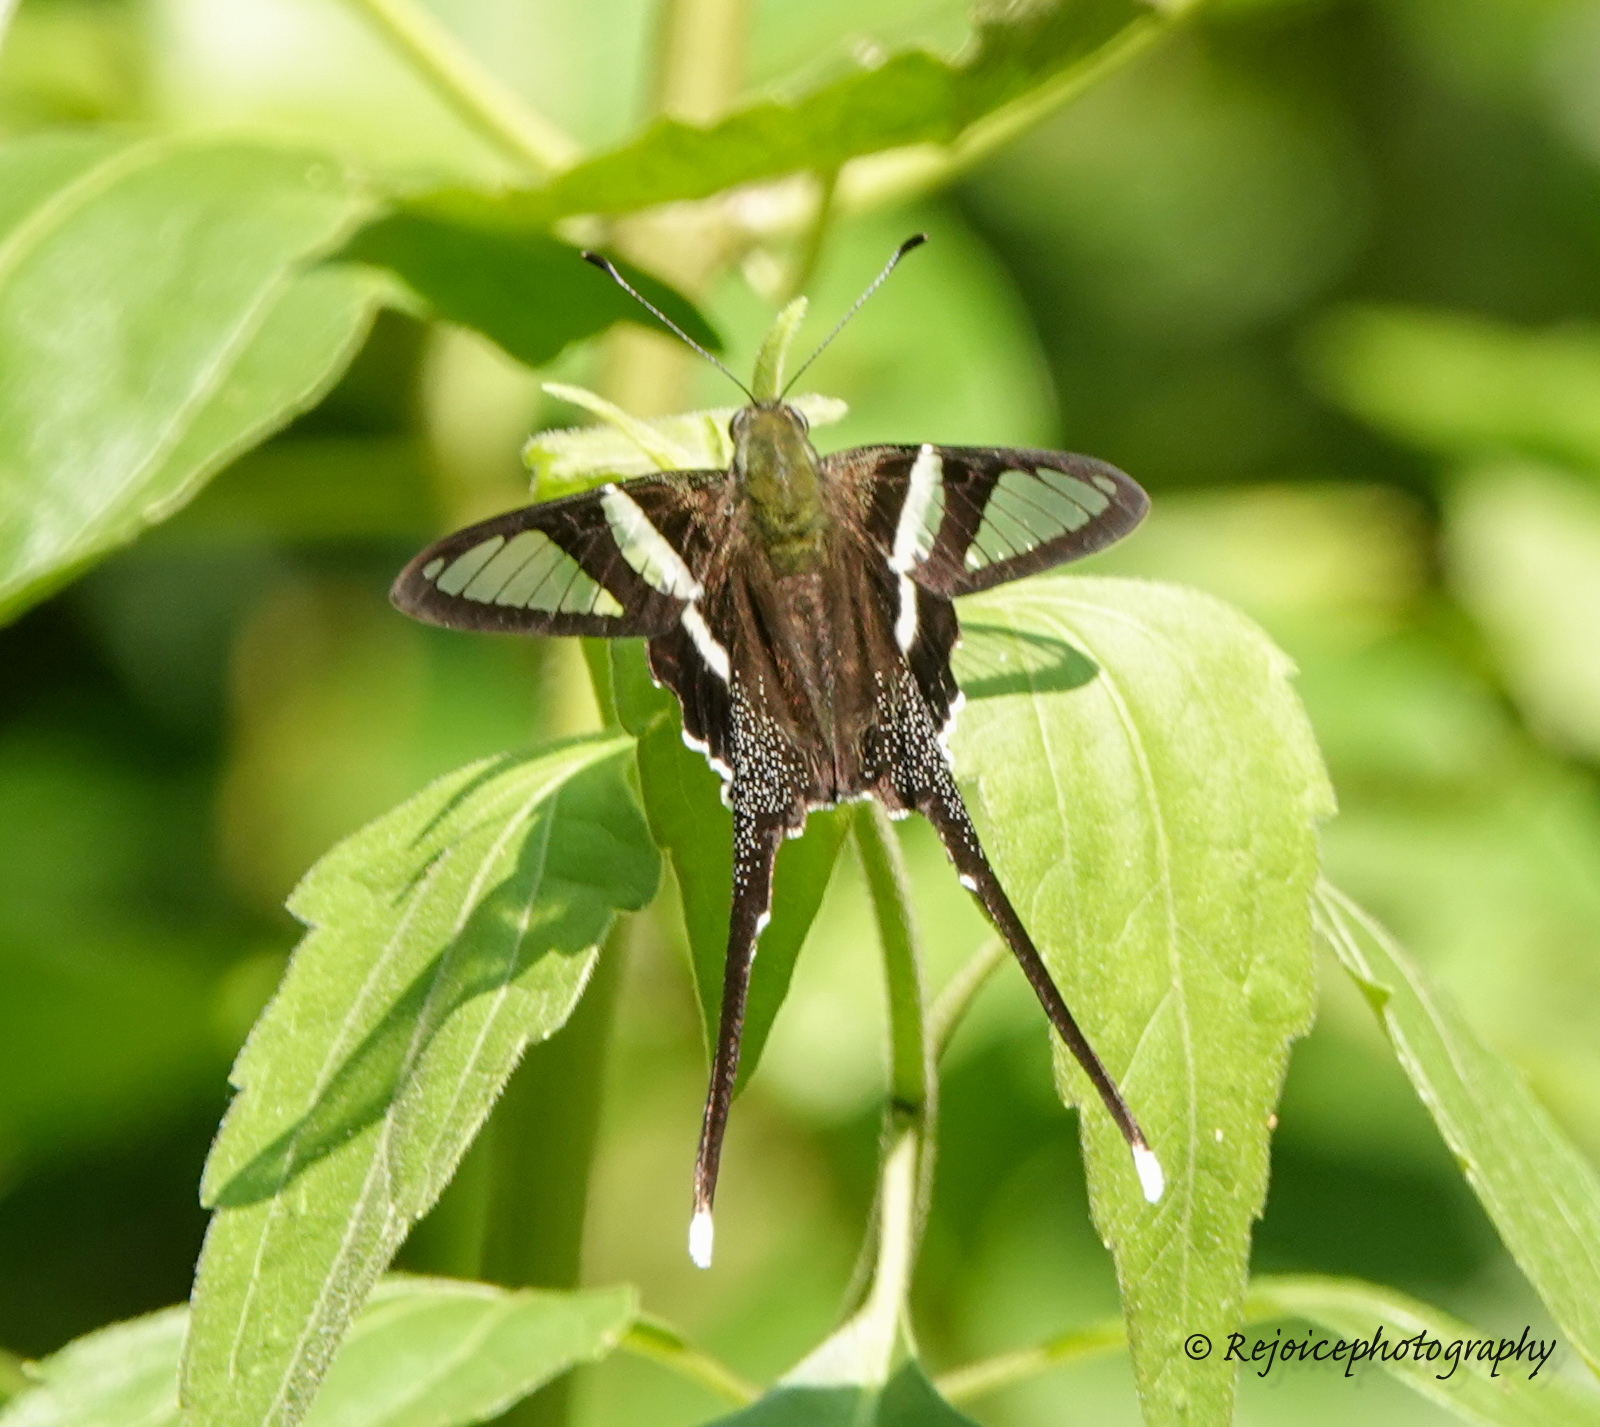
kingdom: Animalia
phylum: Arthropoda
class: Insecta
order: Lepidoptera
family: Papilionidae
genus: Lamproptera
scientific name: Lamproptera curius
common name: White dragontail
